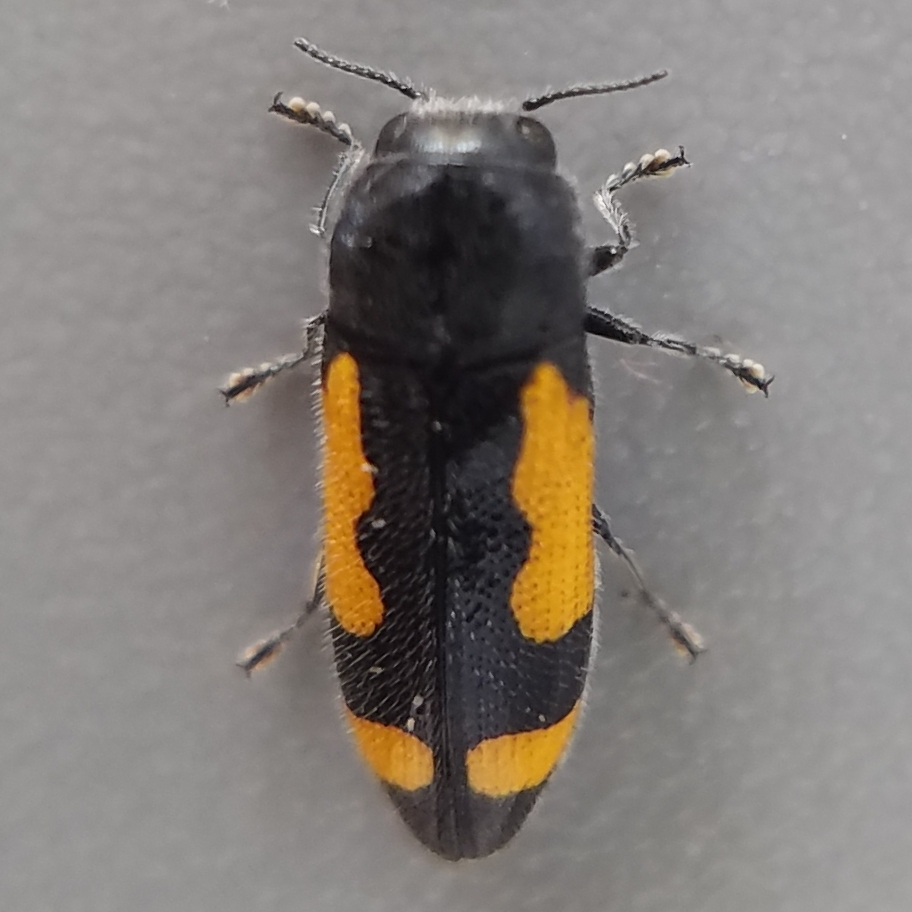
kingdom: Animalia
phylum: Arthropoda
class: Insecta
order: Coleoptera
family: Buprestidae
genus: Ptosima
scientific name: Ptosima gibbicollis
